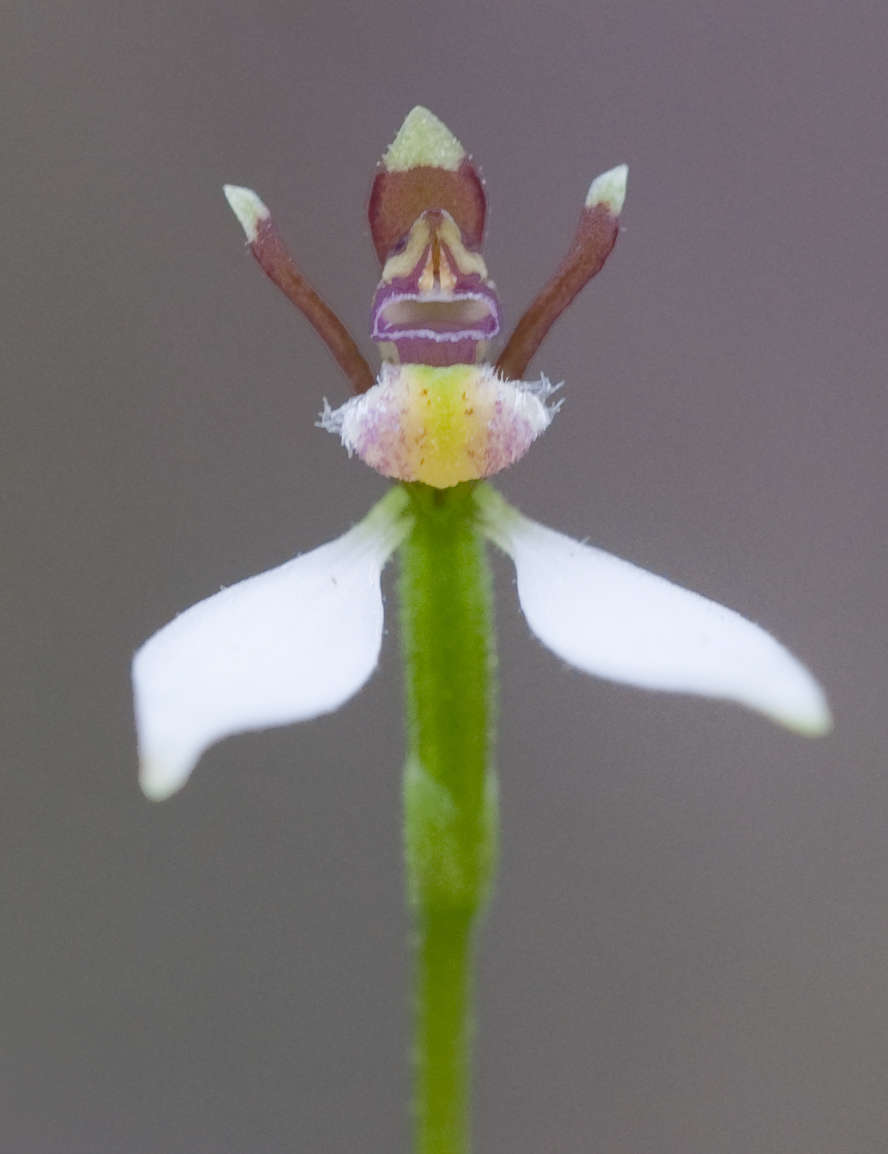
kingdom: Plantae
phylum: Tracheophyta
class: Liliopsida
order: Asparagales
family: Orchidaceae
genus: Eriochilus
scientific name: Eriochilus cucullatus
